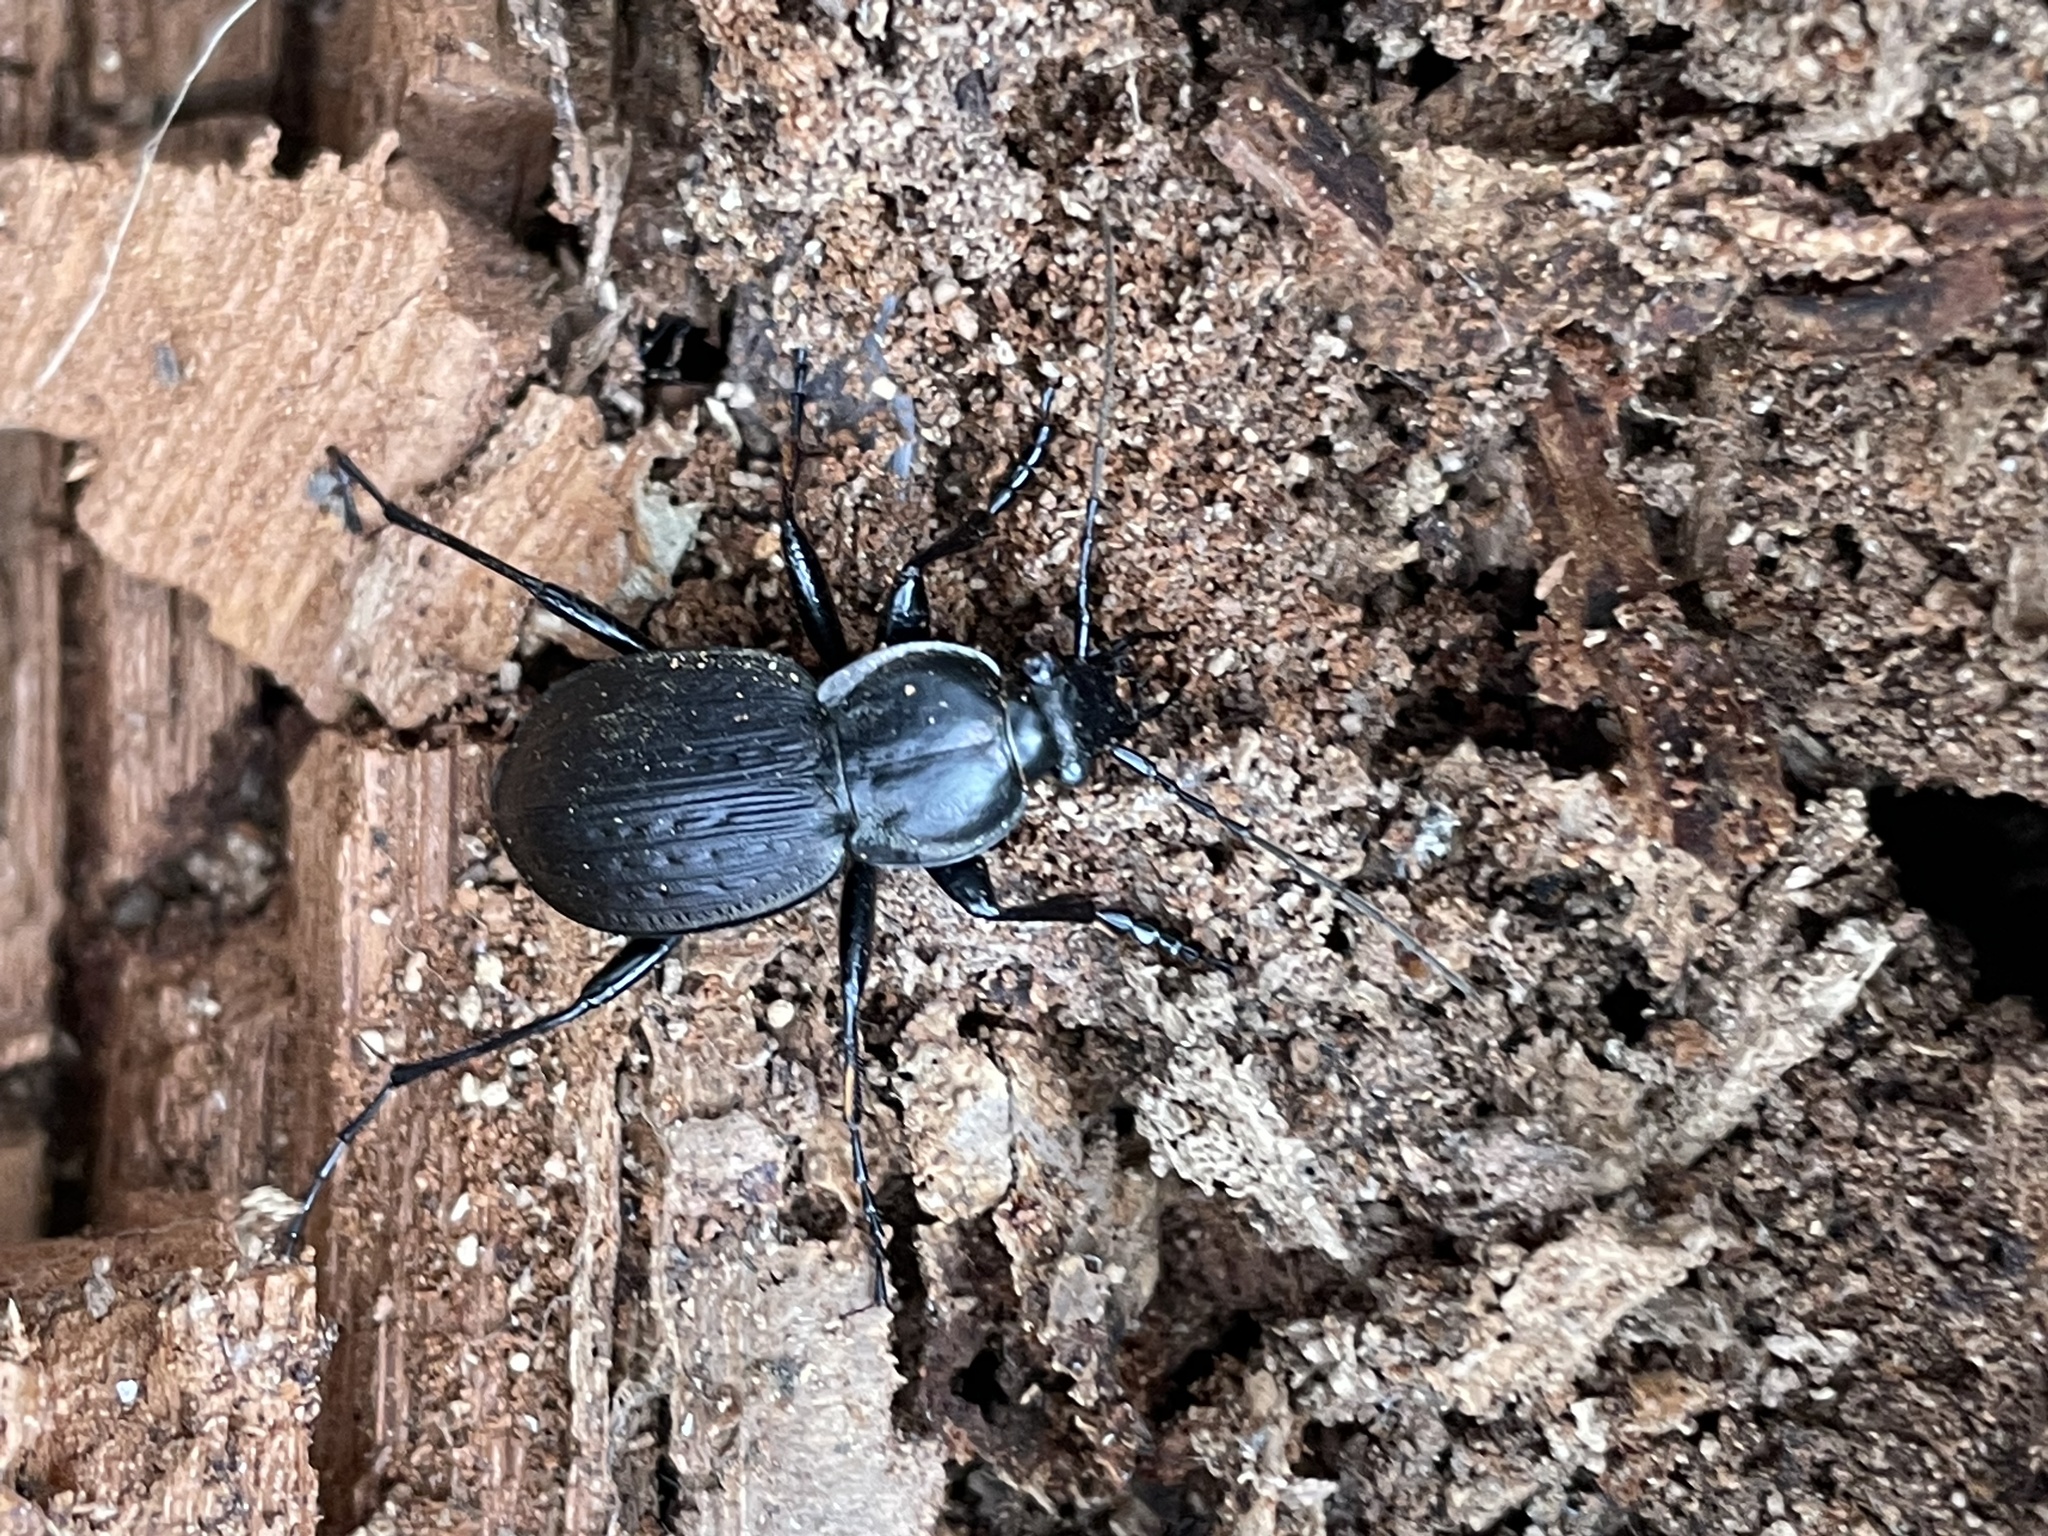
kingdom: Animalia
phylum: Arthropoda
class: Insecta
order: Coleoptera
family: Carabidae
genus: Carabus
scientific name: Carabus vinctus
